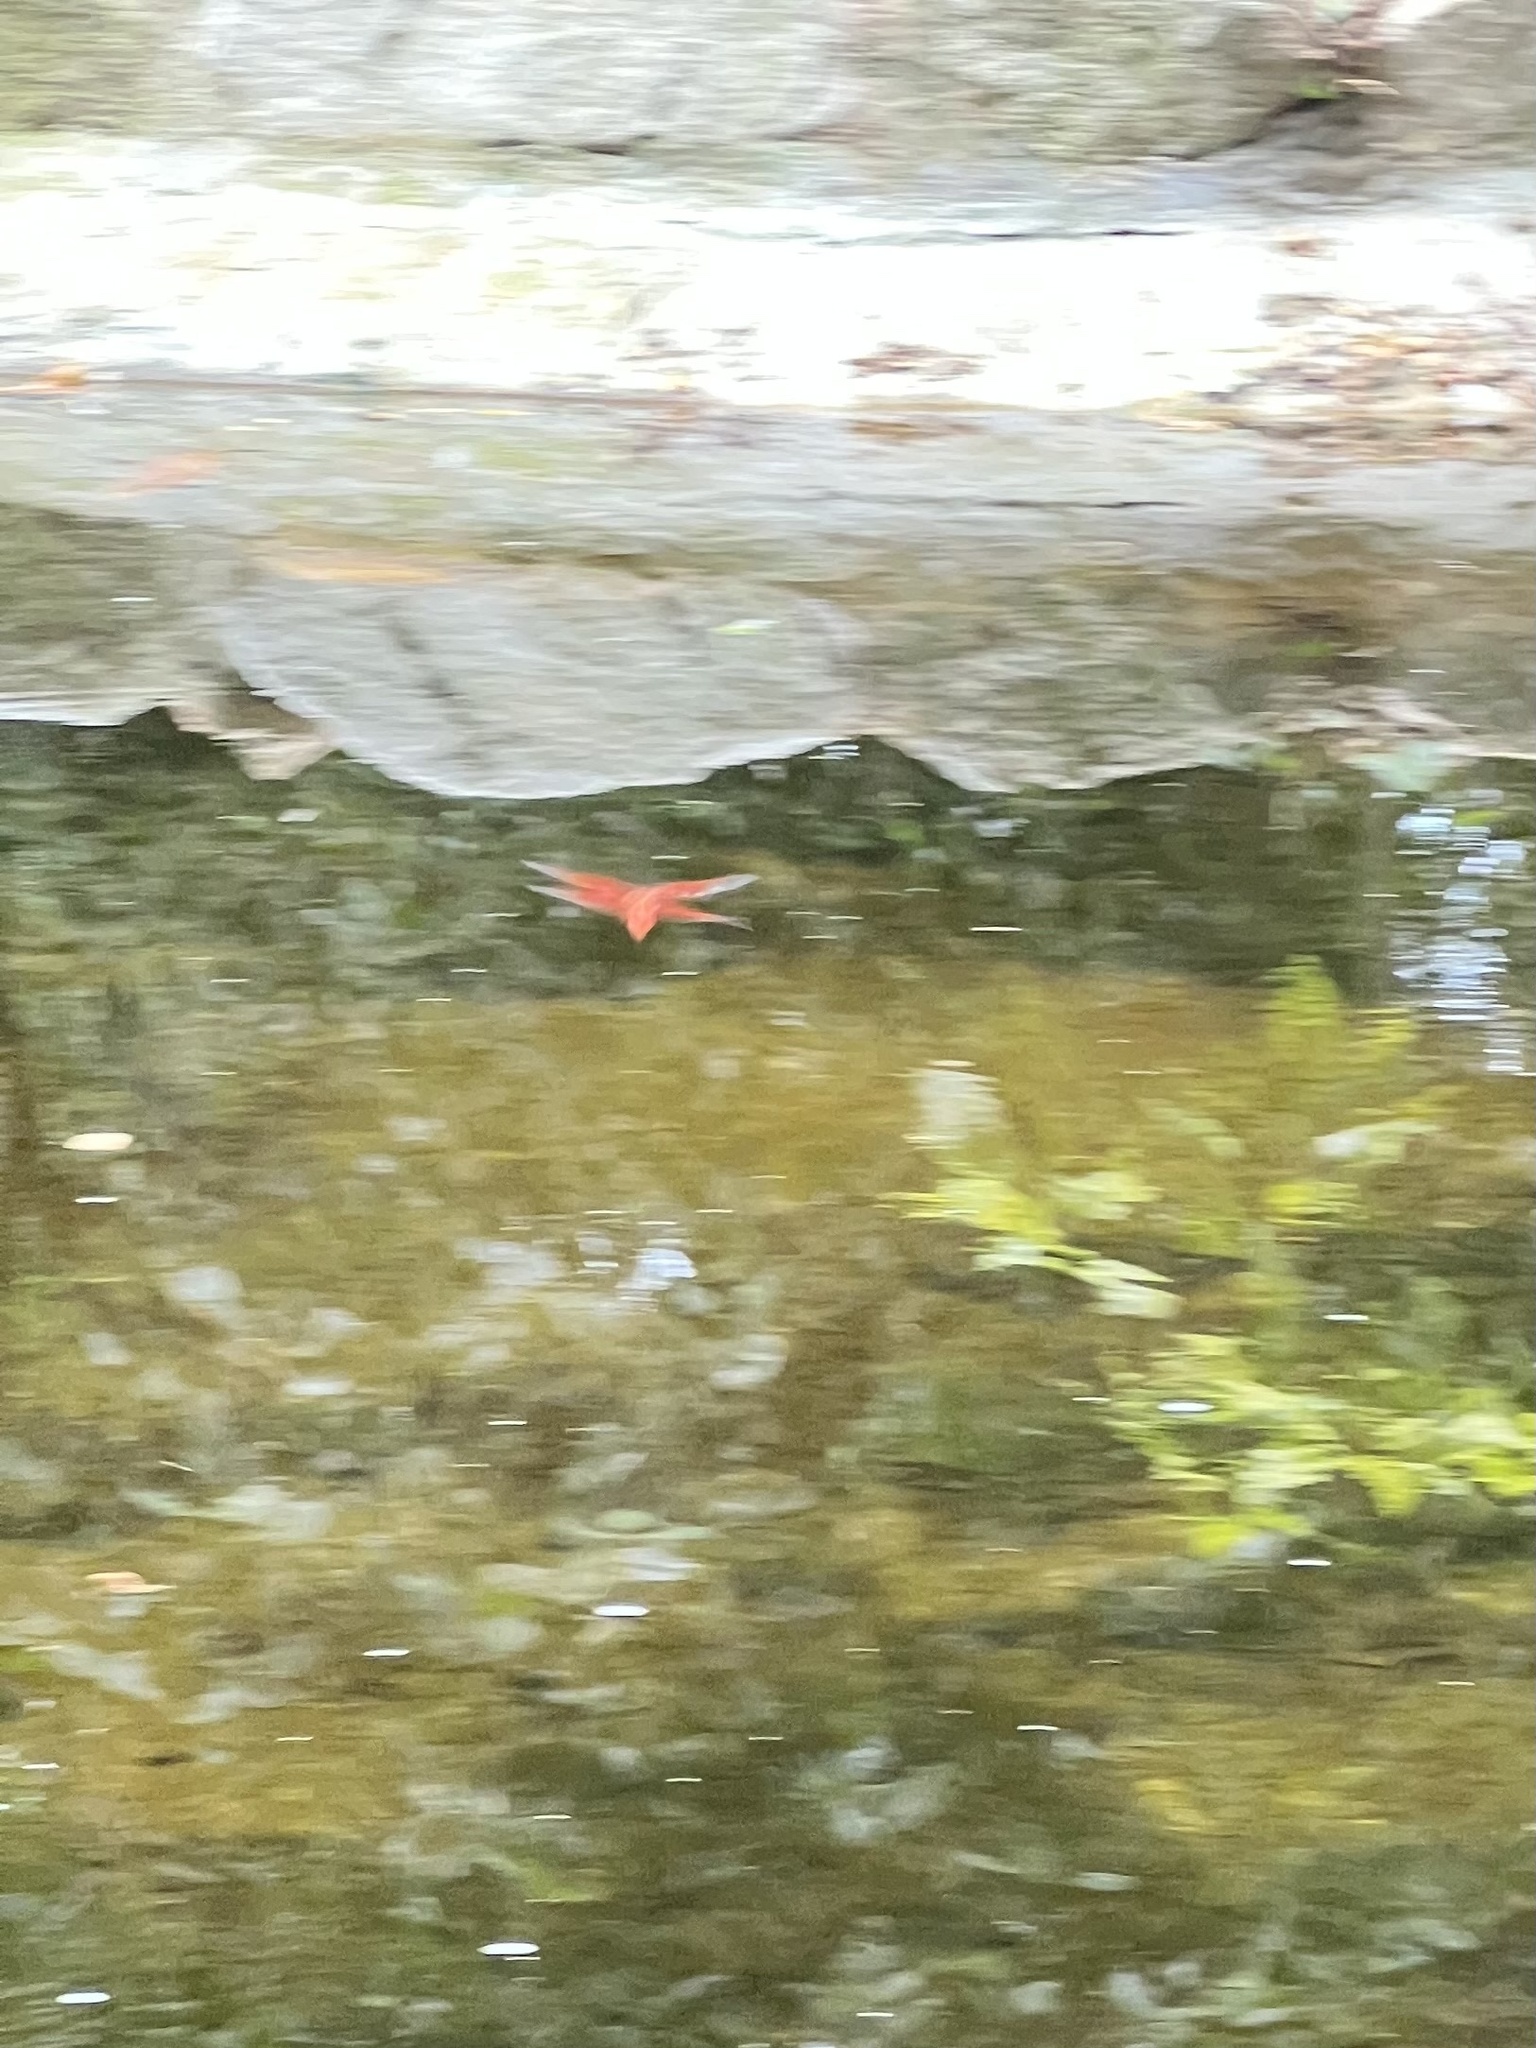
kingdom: Animalia
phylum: Arthropoda
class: Insecta
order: Odonata
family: Libellulidae
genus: Libellula
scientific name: Libellula saturata
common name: Flame skimmer
